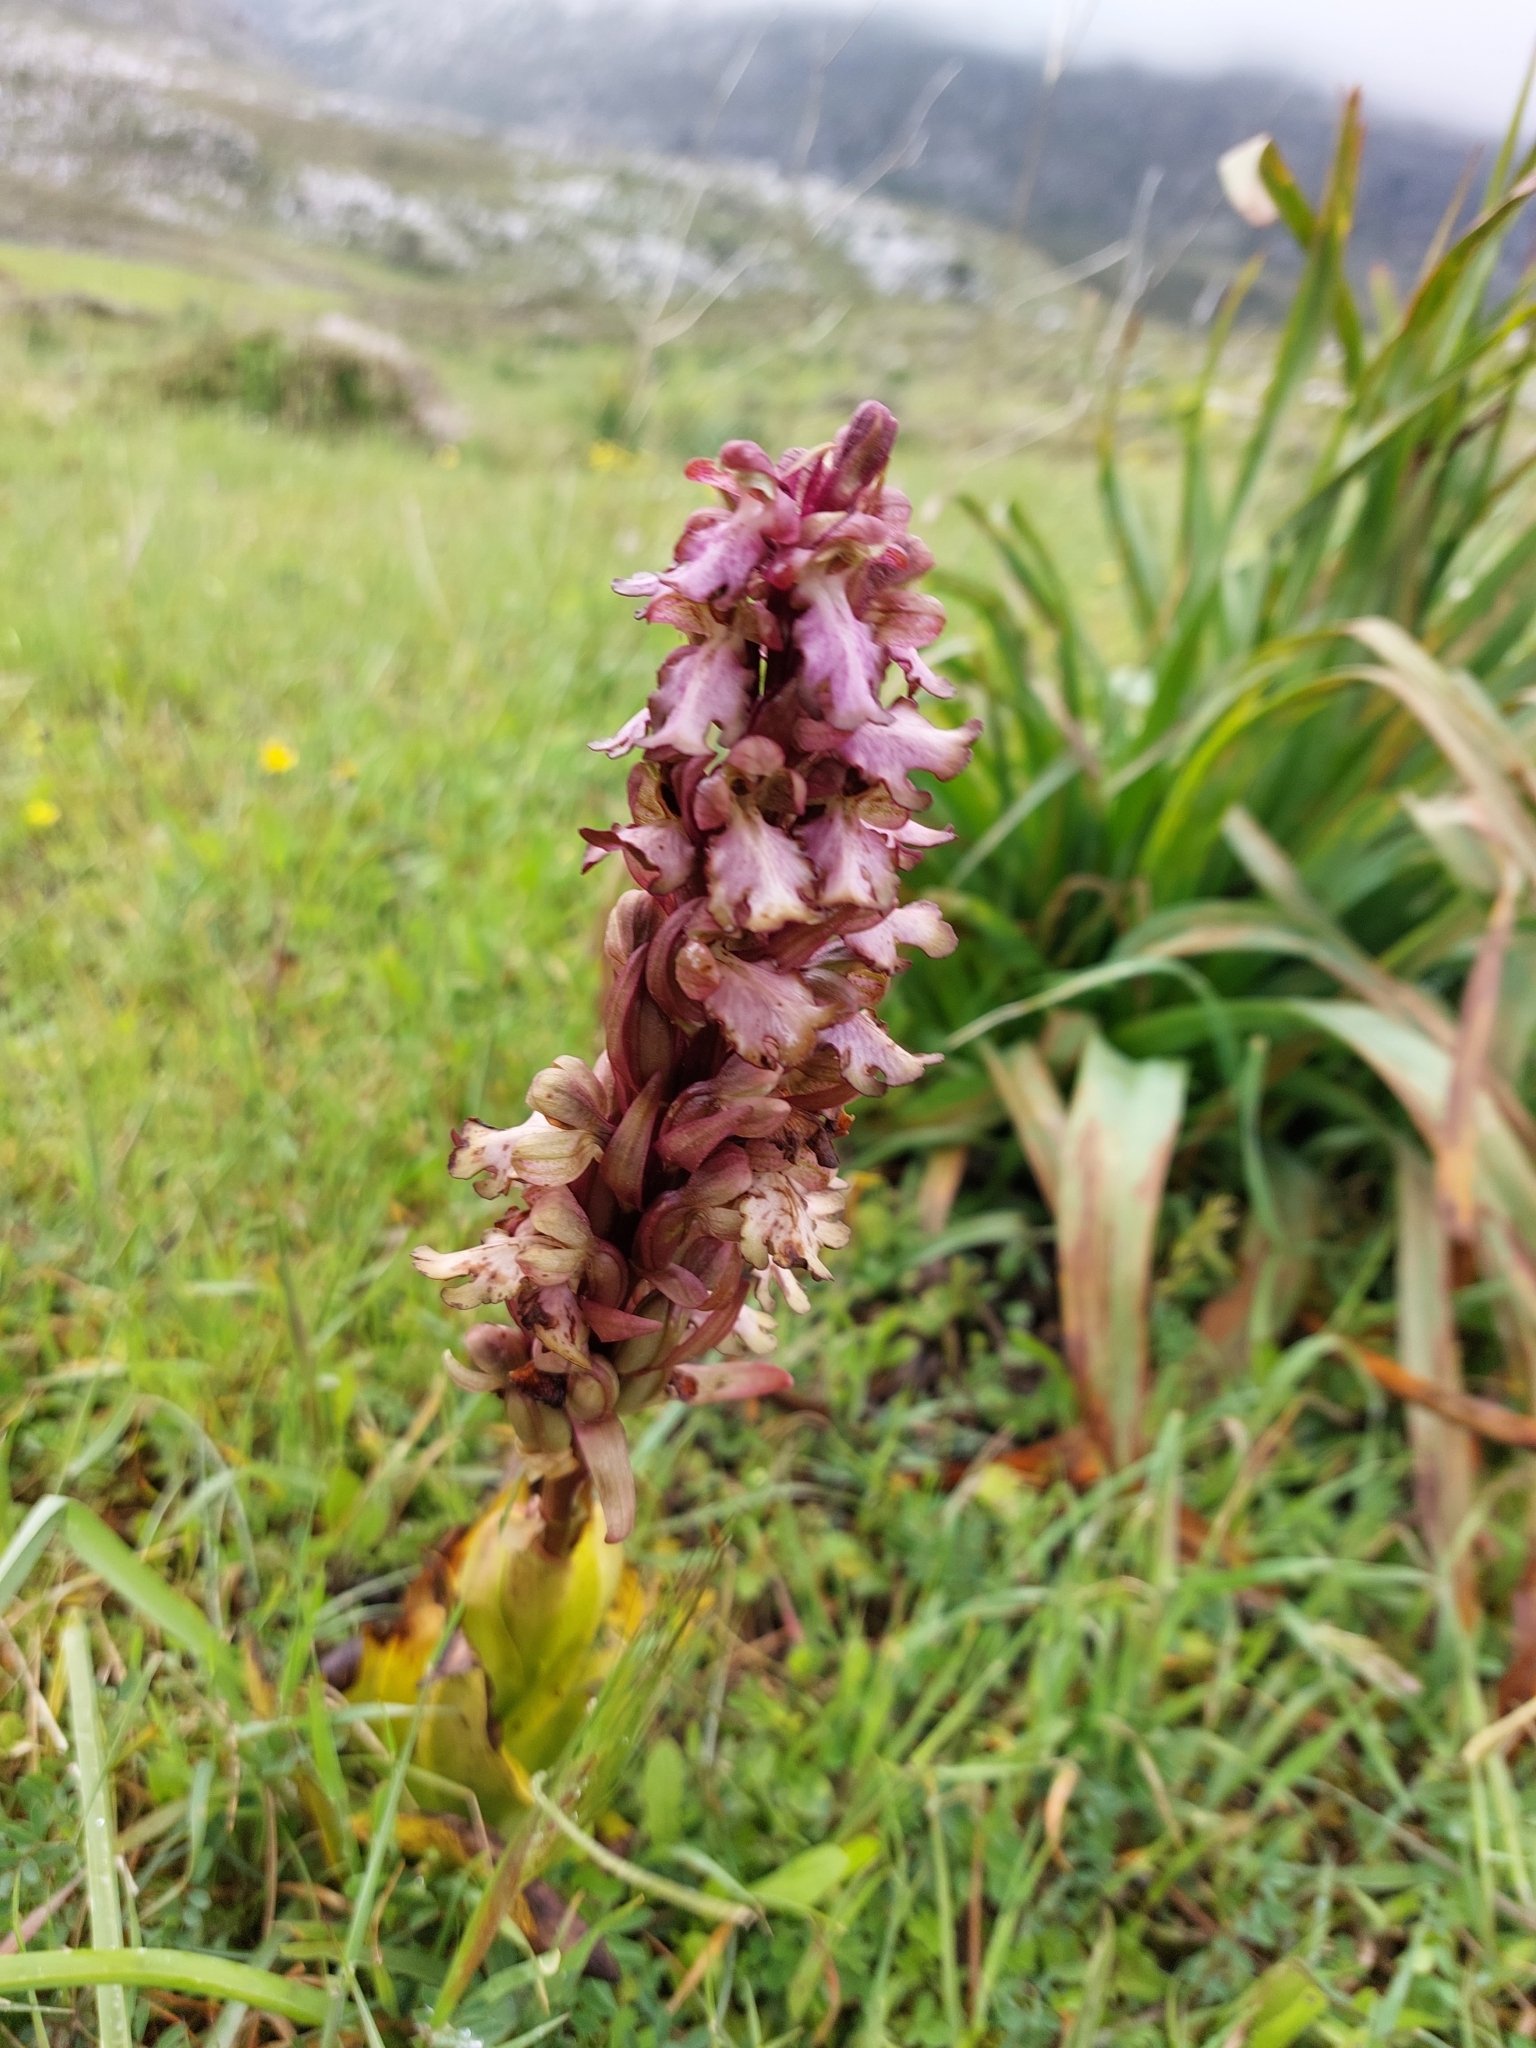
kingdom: Plantae
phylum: Tracheophyta
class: Liliopsida
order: Asparagales
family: Orchidaceae
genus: Himantoglossum
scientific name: Himantoglossum robertianum
